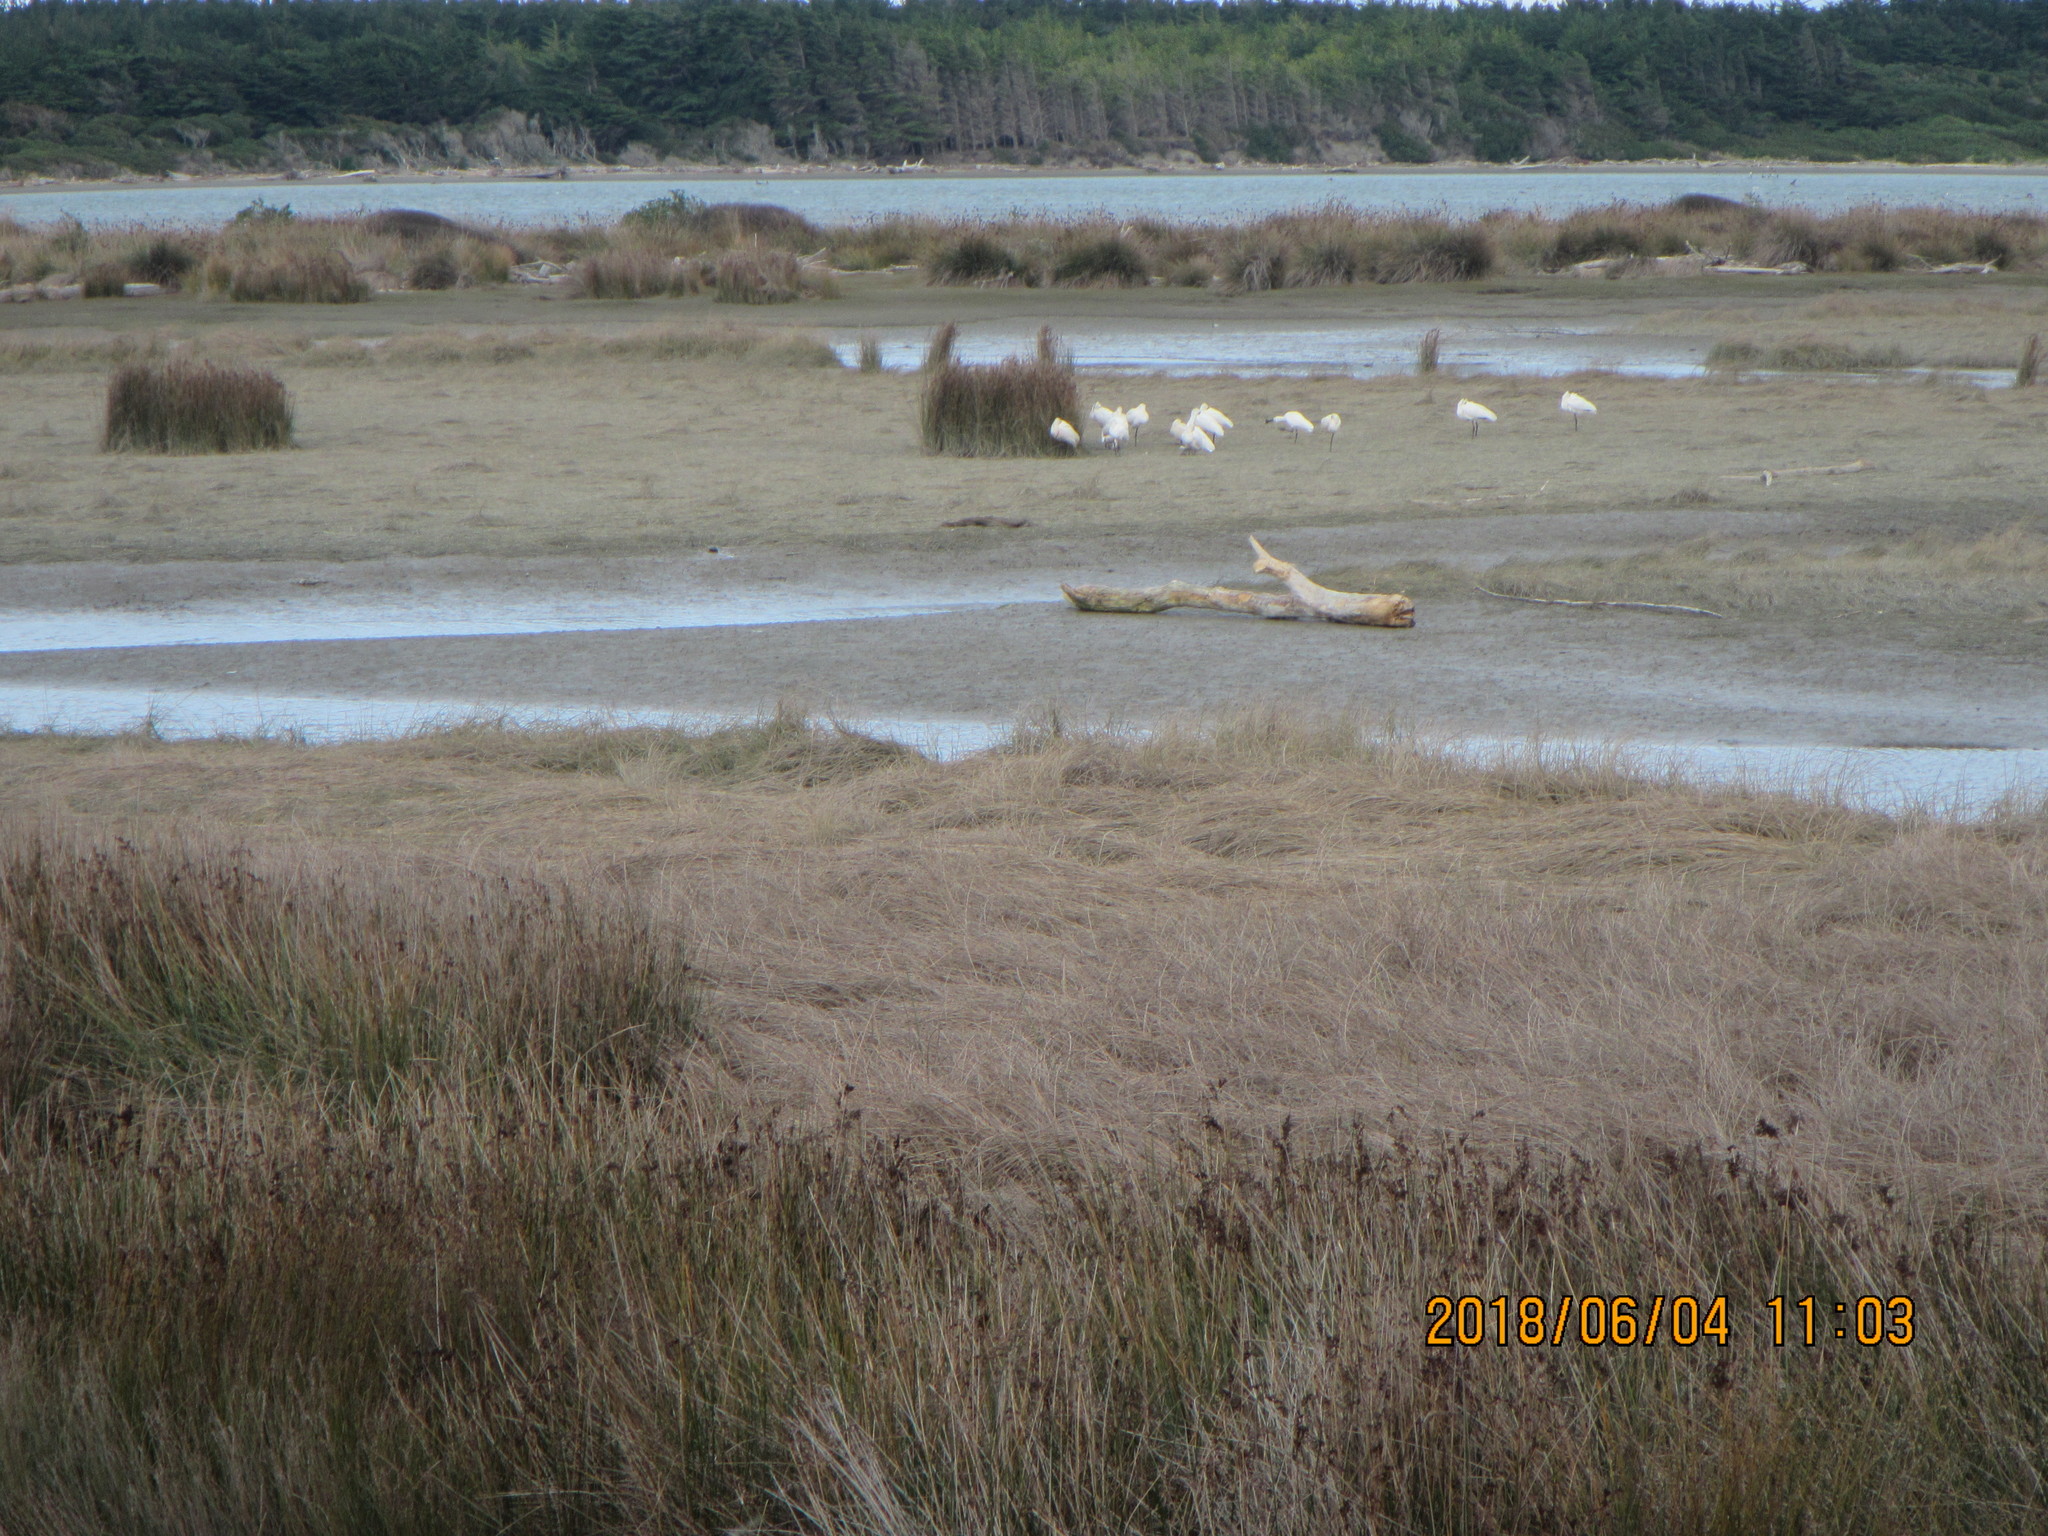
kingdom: Animalia
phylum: Chordata
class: Aves
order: Pelecaniformes
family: Threskiornithidae
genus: Platalea
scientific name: Platalea regia
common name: Royal spoonbill
